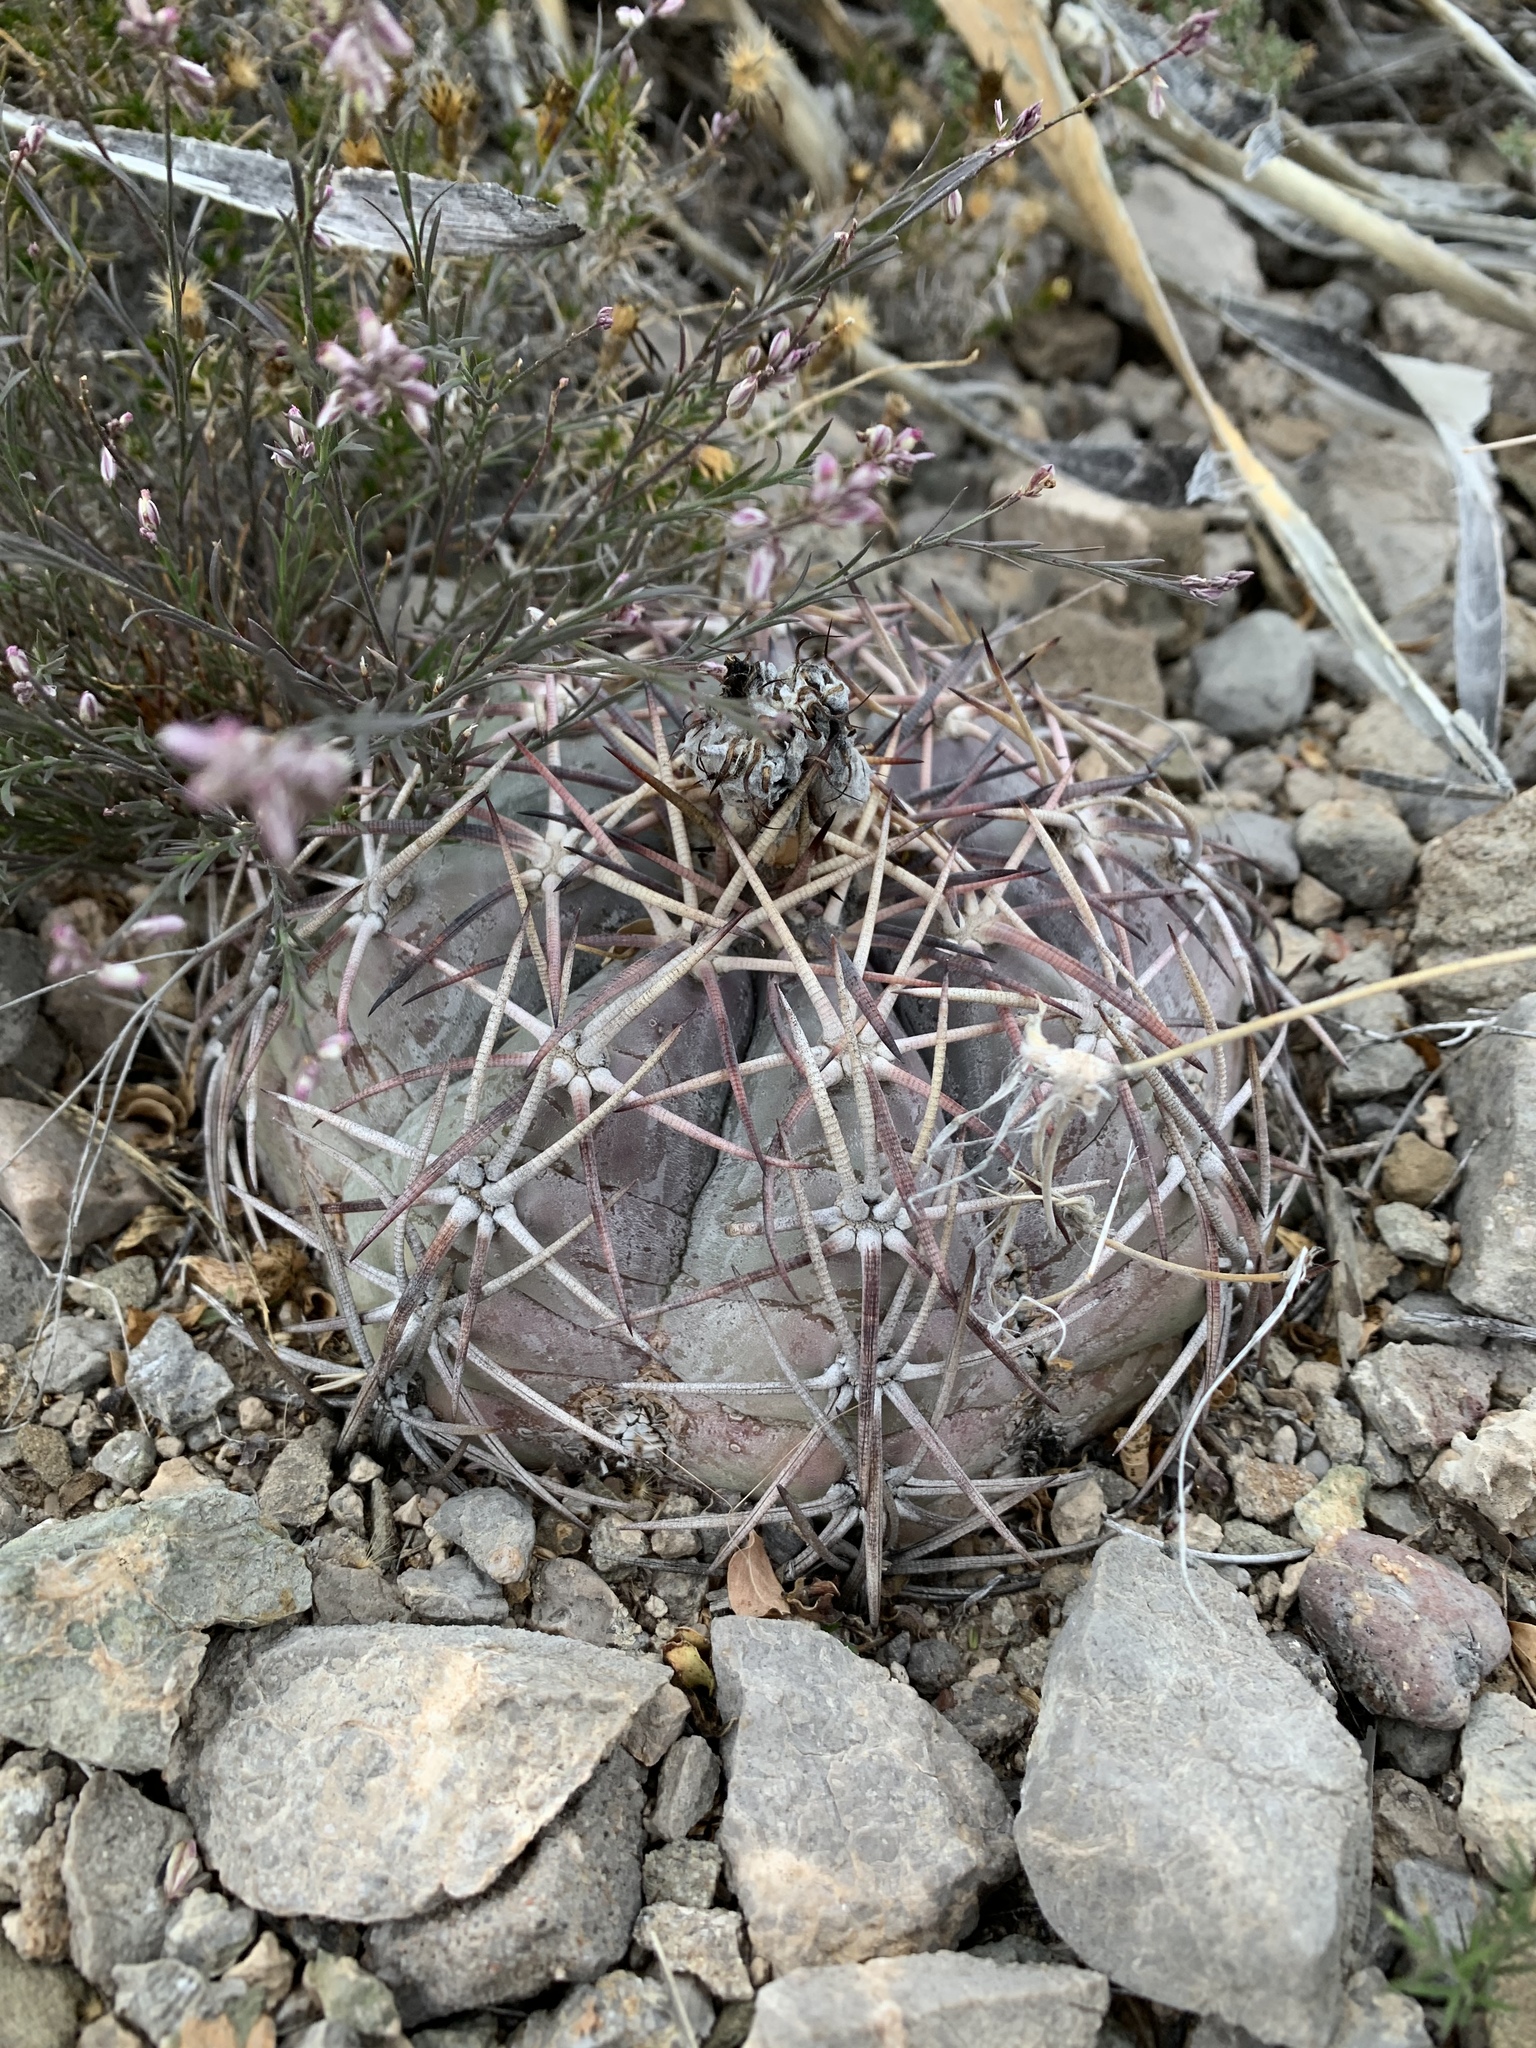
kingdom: Plantae
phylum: Tracheophyta
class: Magnoliopsida
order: Caryophyllales
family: Cactaceae
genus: Echinocactus
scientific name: Echinocactus horizonthalonius
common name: Devilshead
